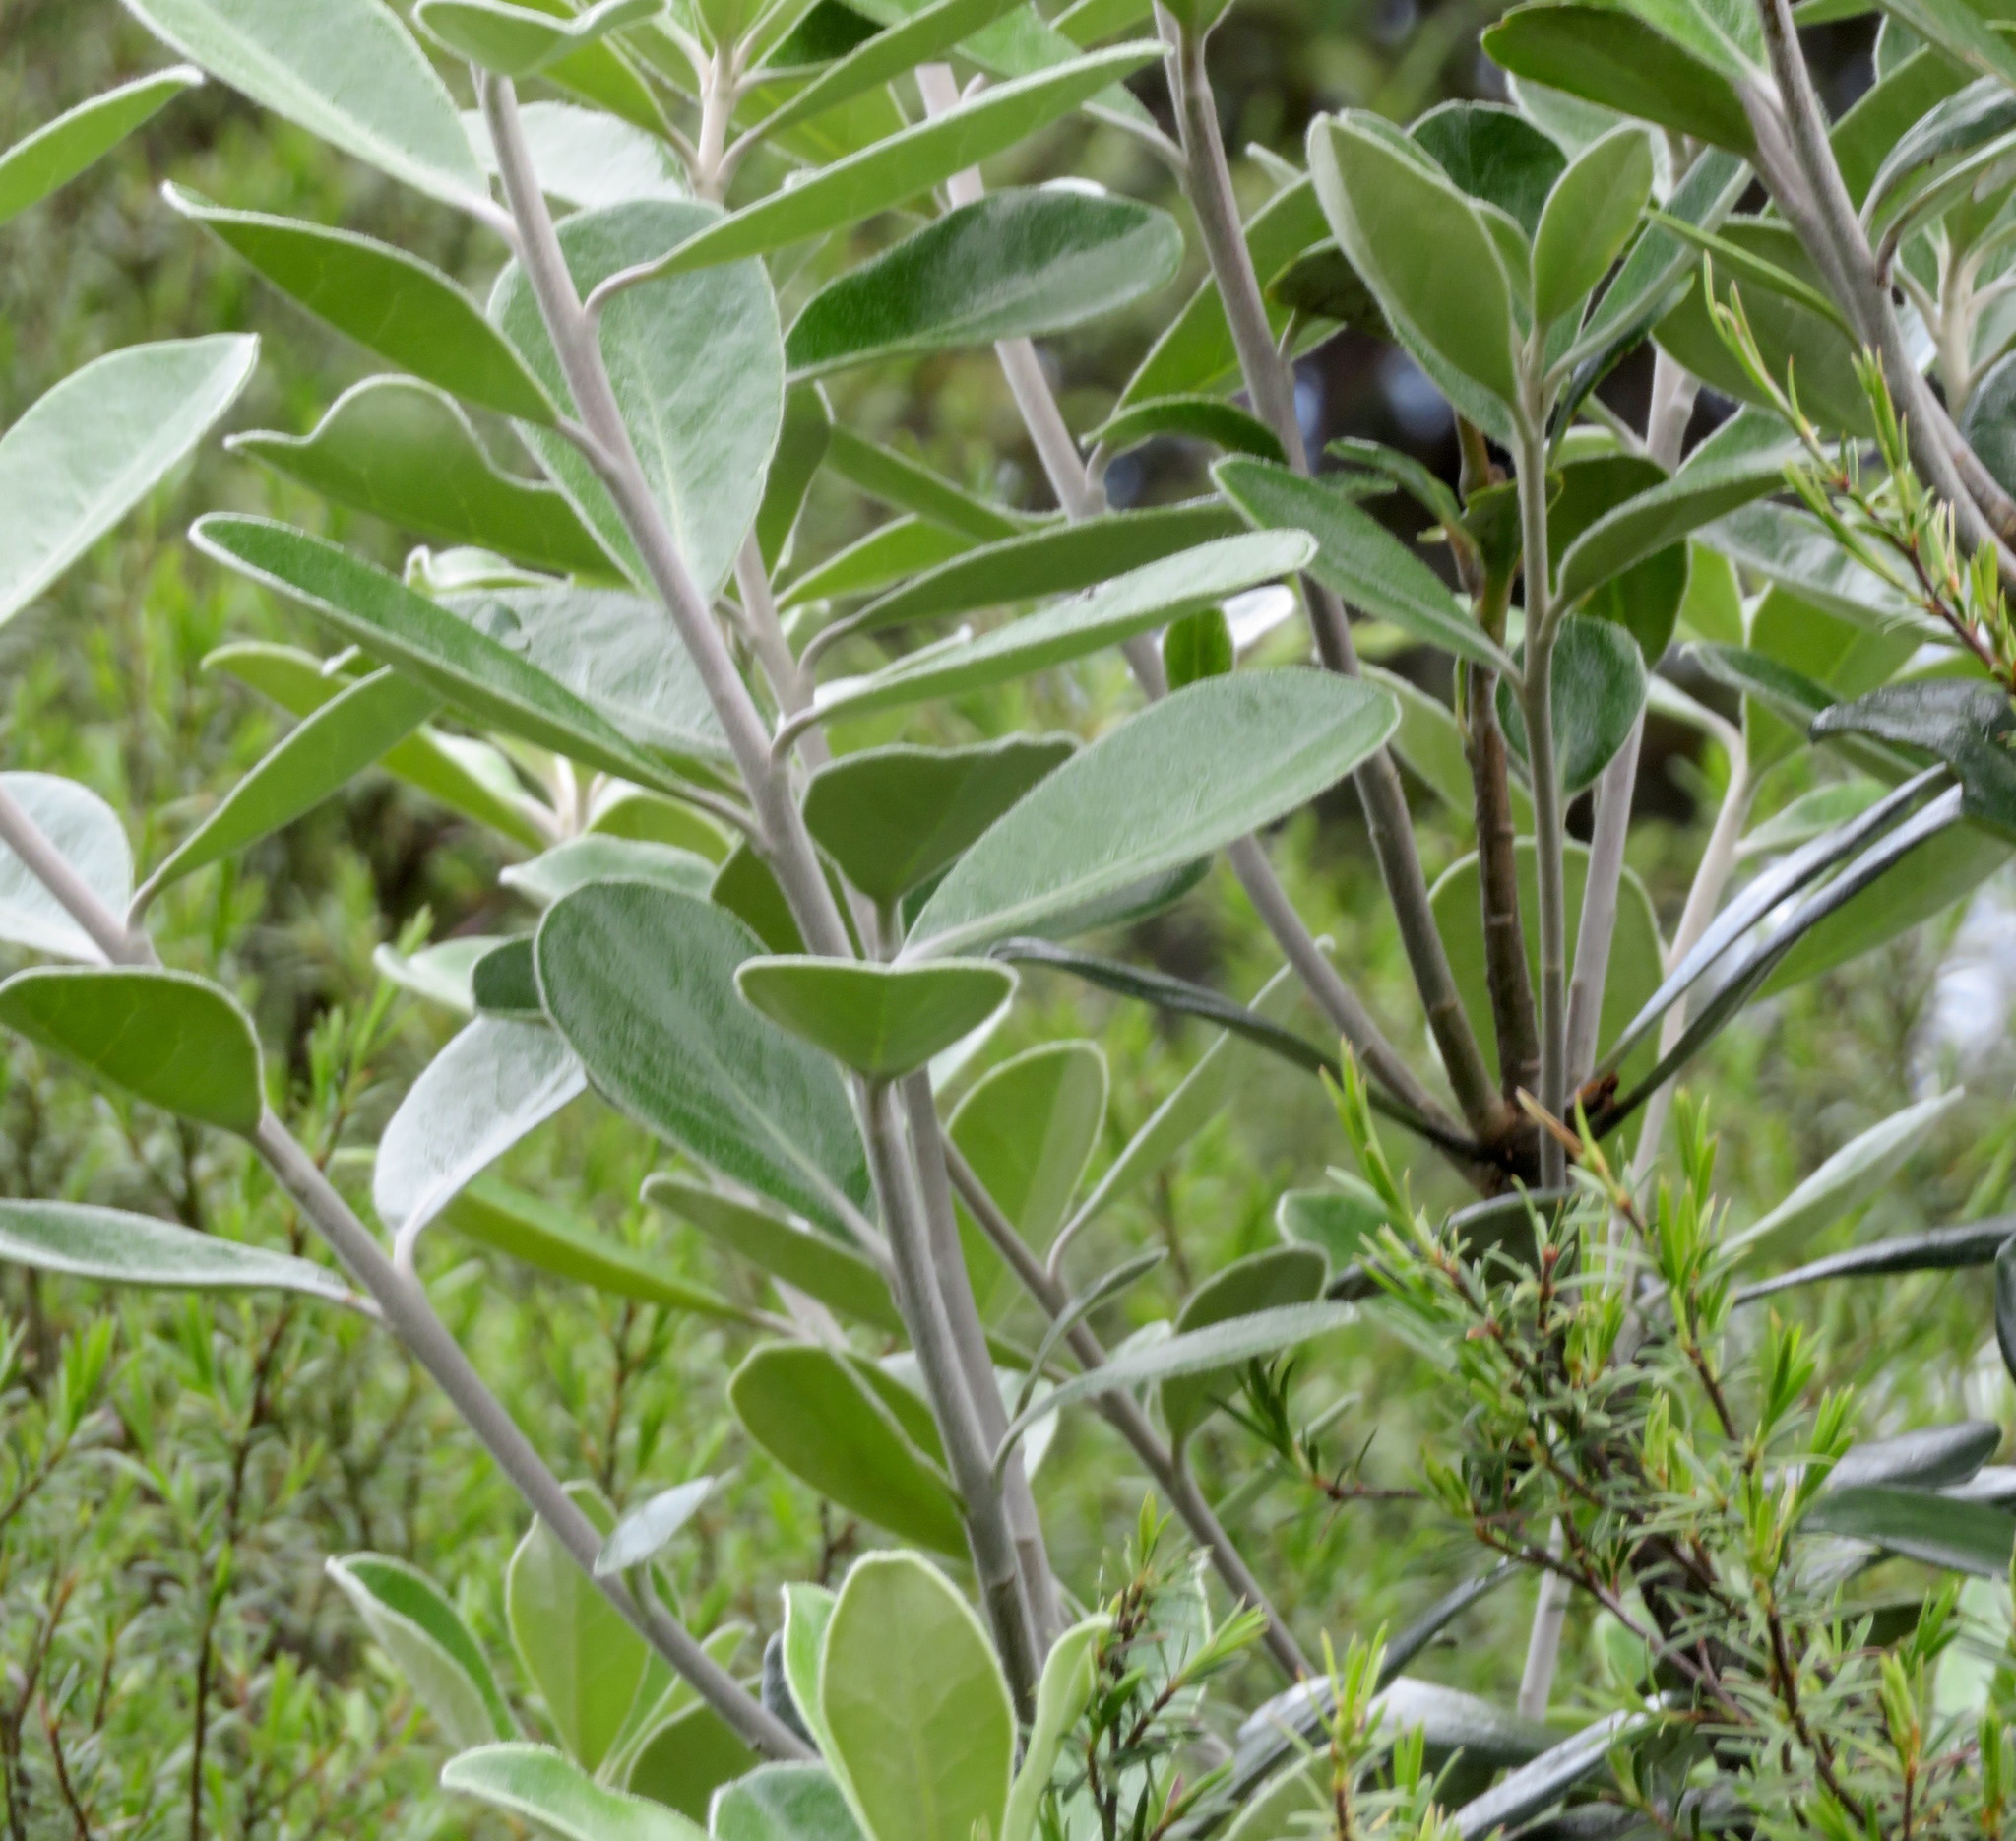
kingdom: Plantae
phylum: Tracheophyta
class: Magnoliopsida
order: Apiales
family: Pittosporaceae
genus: Pittosporum
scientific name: Pittosporum crassifolium
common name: Karo
